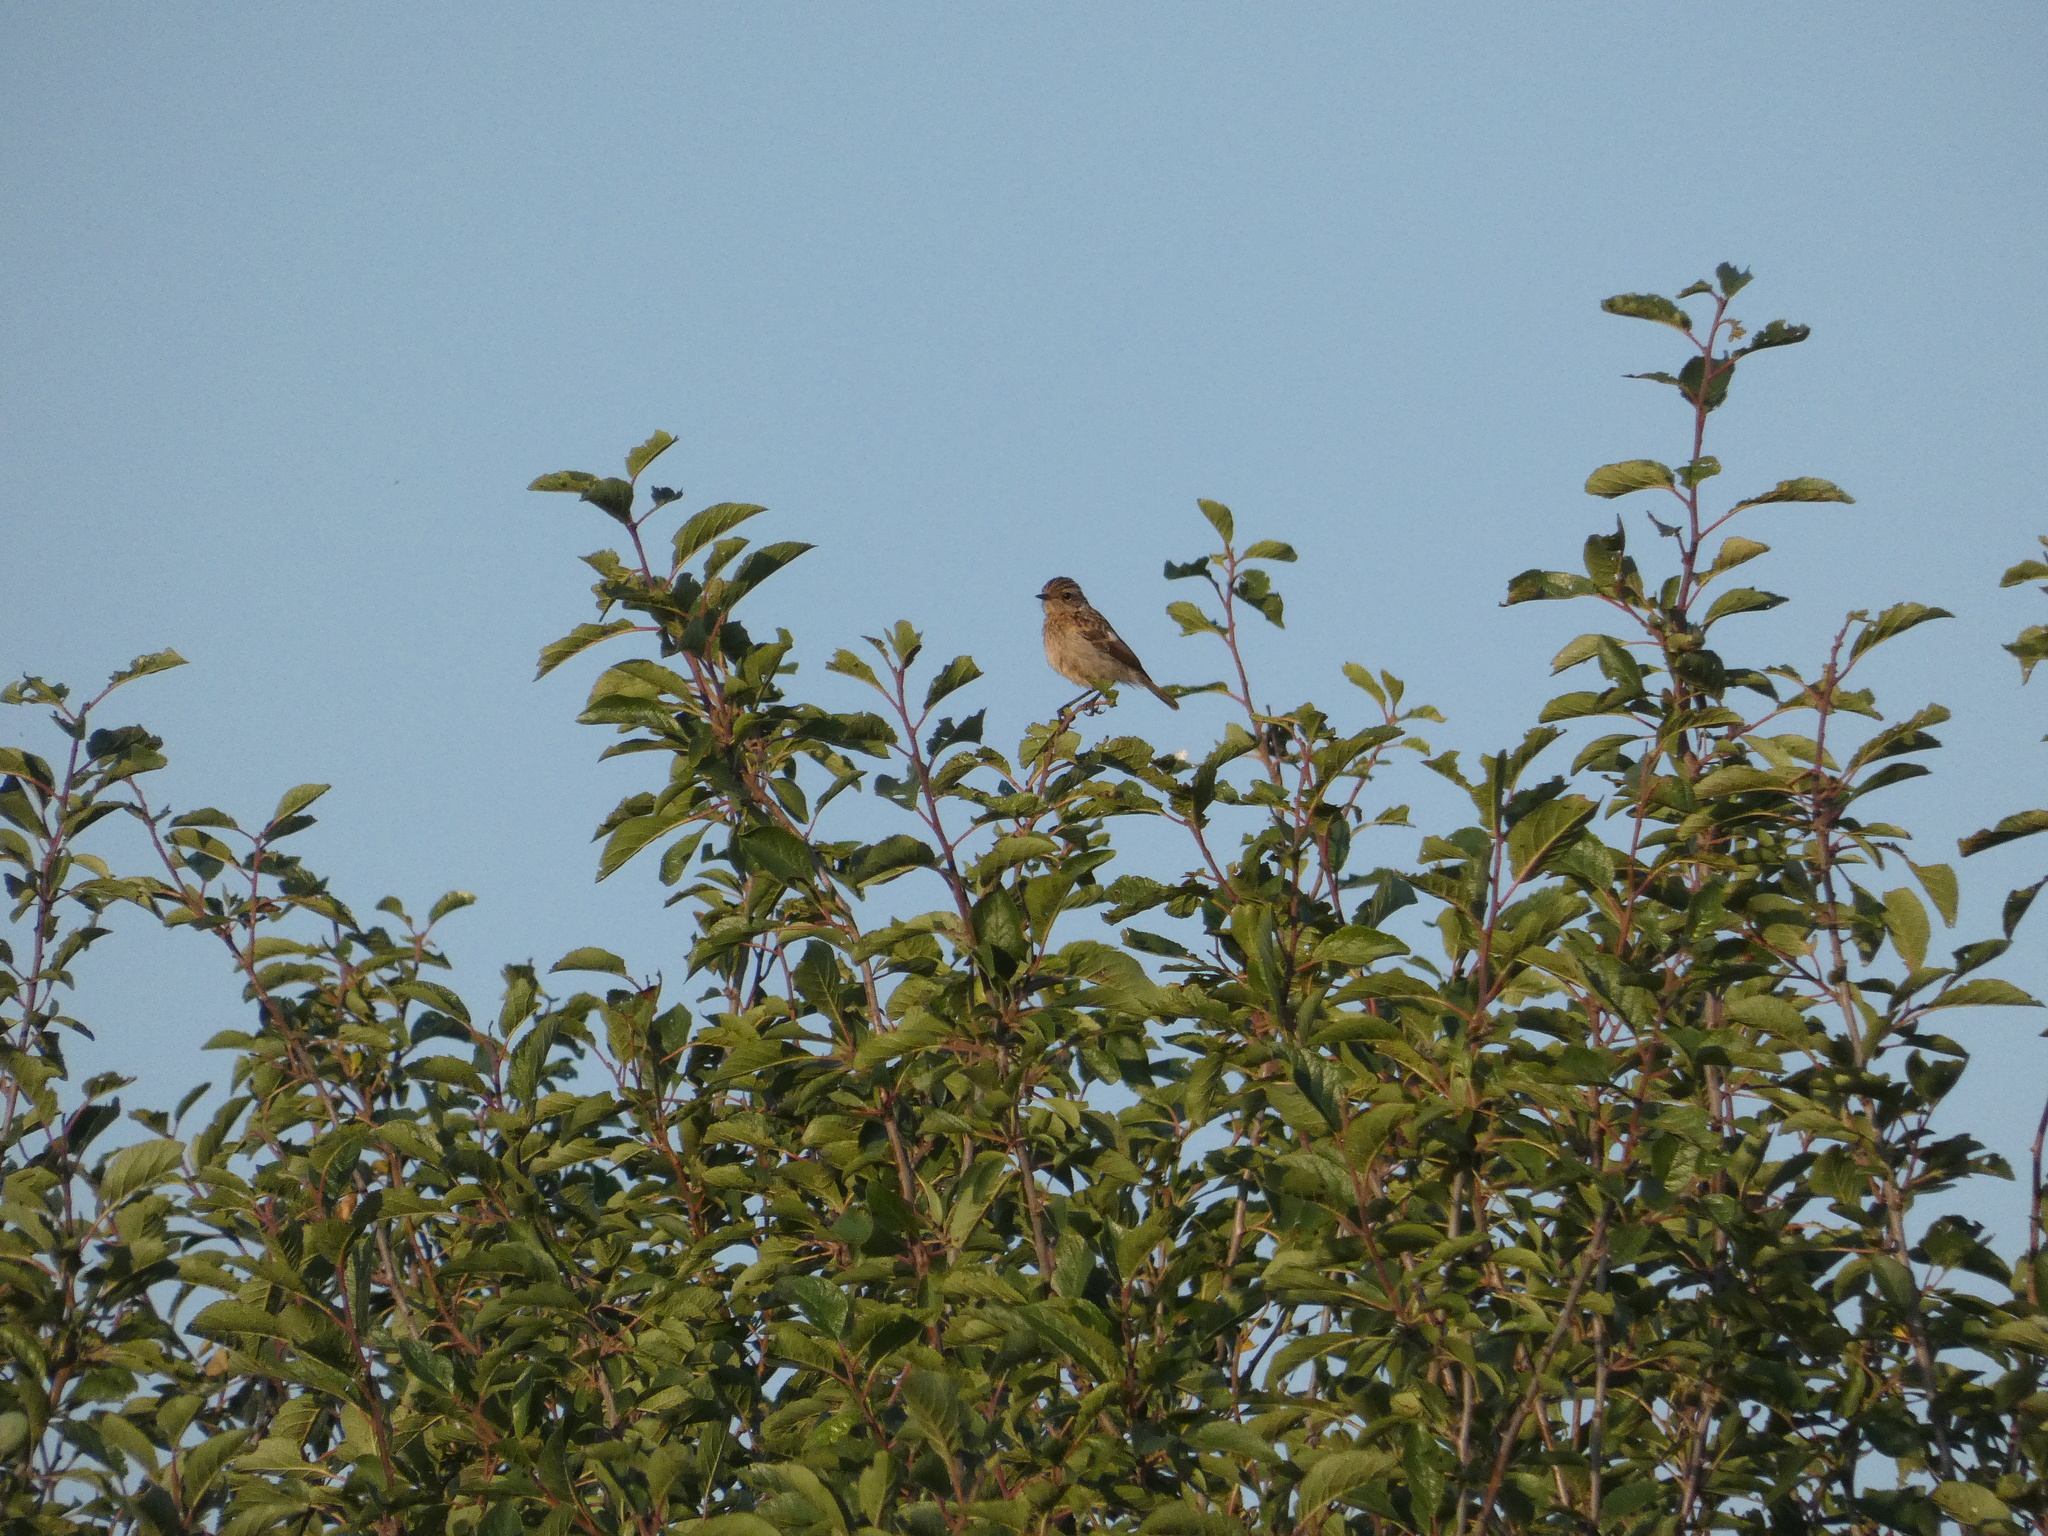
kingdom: Animalia
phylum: Chordata
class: Aves
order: Passeriformes
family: Muscicapidae
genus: Saxicola
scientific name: Saxicola rubicola
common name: European stonechat
